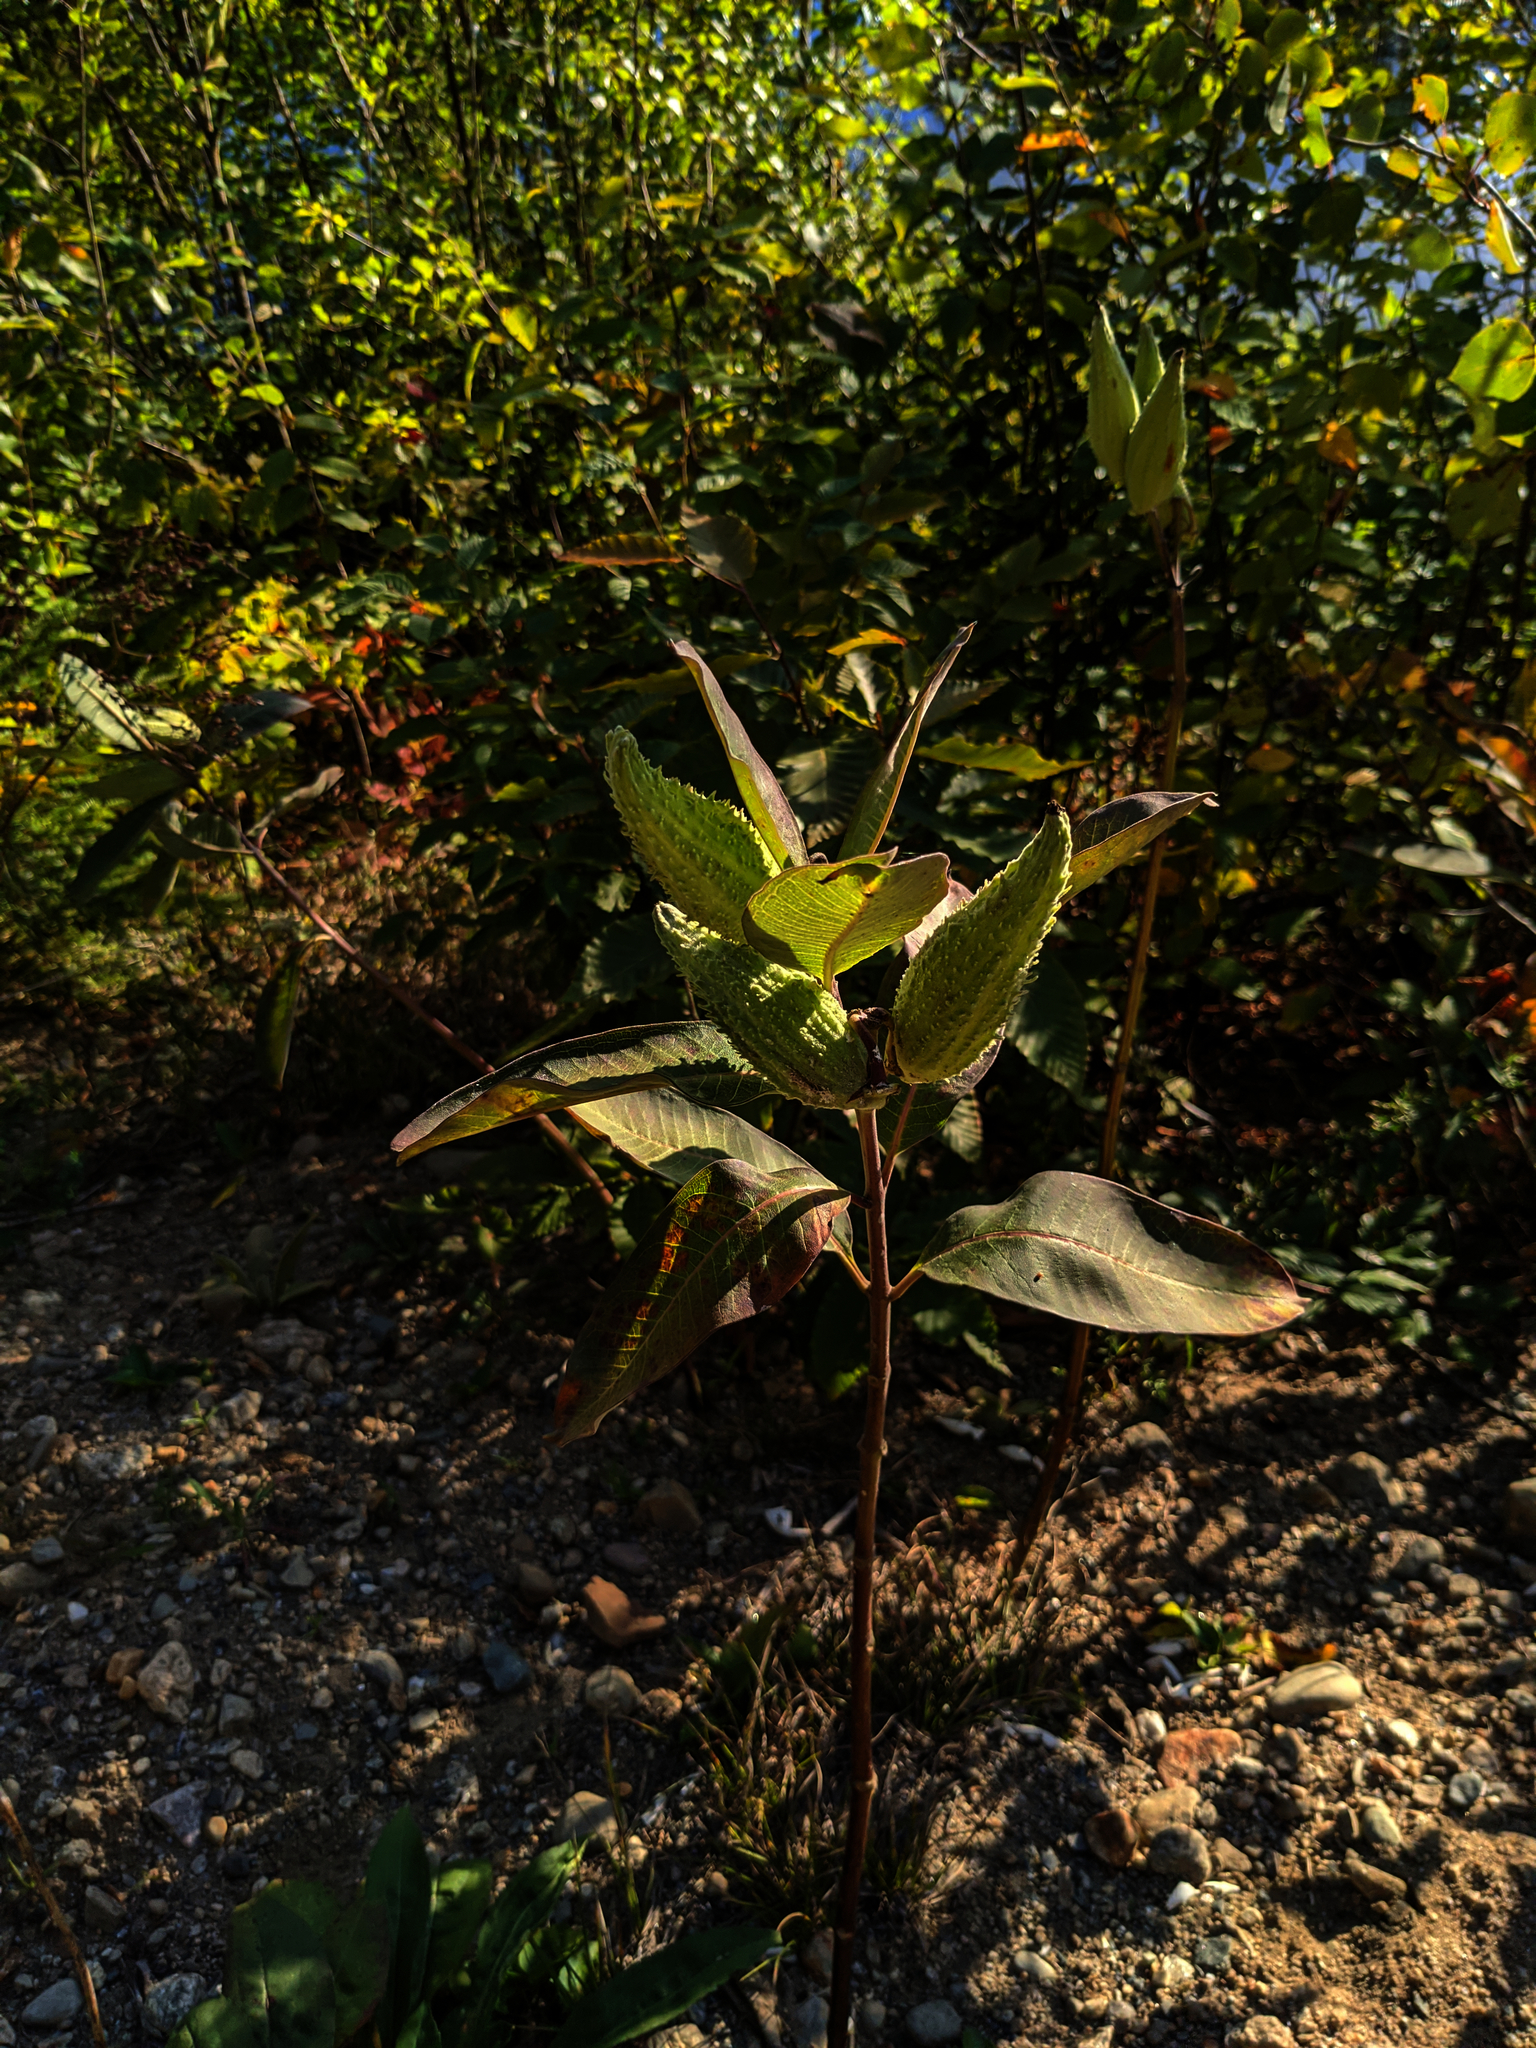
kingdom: Plantae
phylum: Tracheophyta
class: Magnoliopsida
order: Gentianales
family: Apocynaceae
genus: Asclepias
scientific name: Asclepias syriaca
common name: Common milkweed
